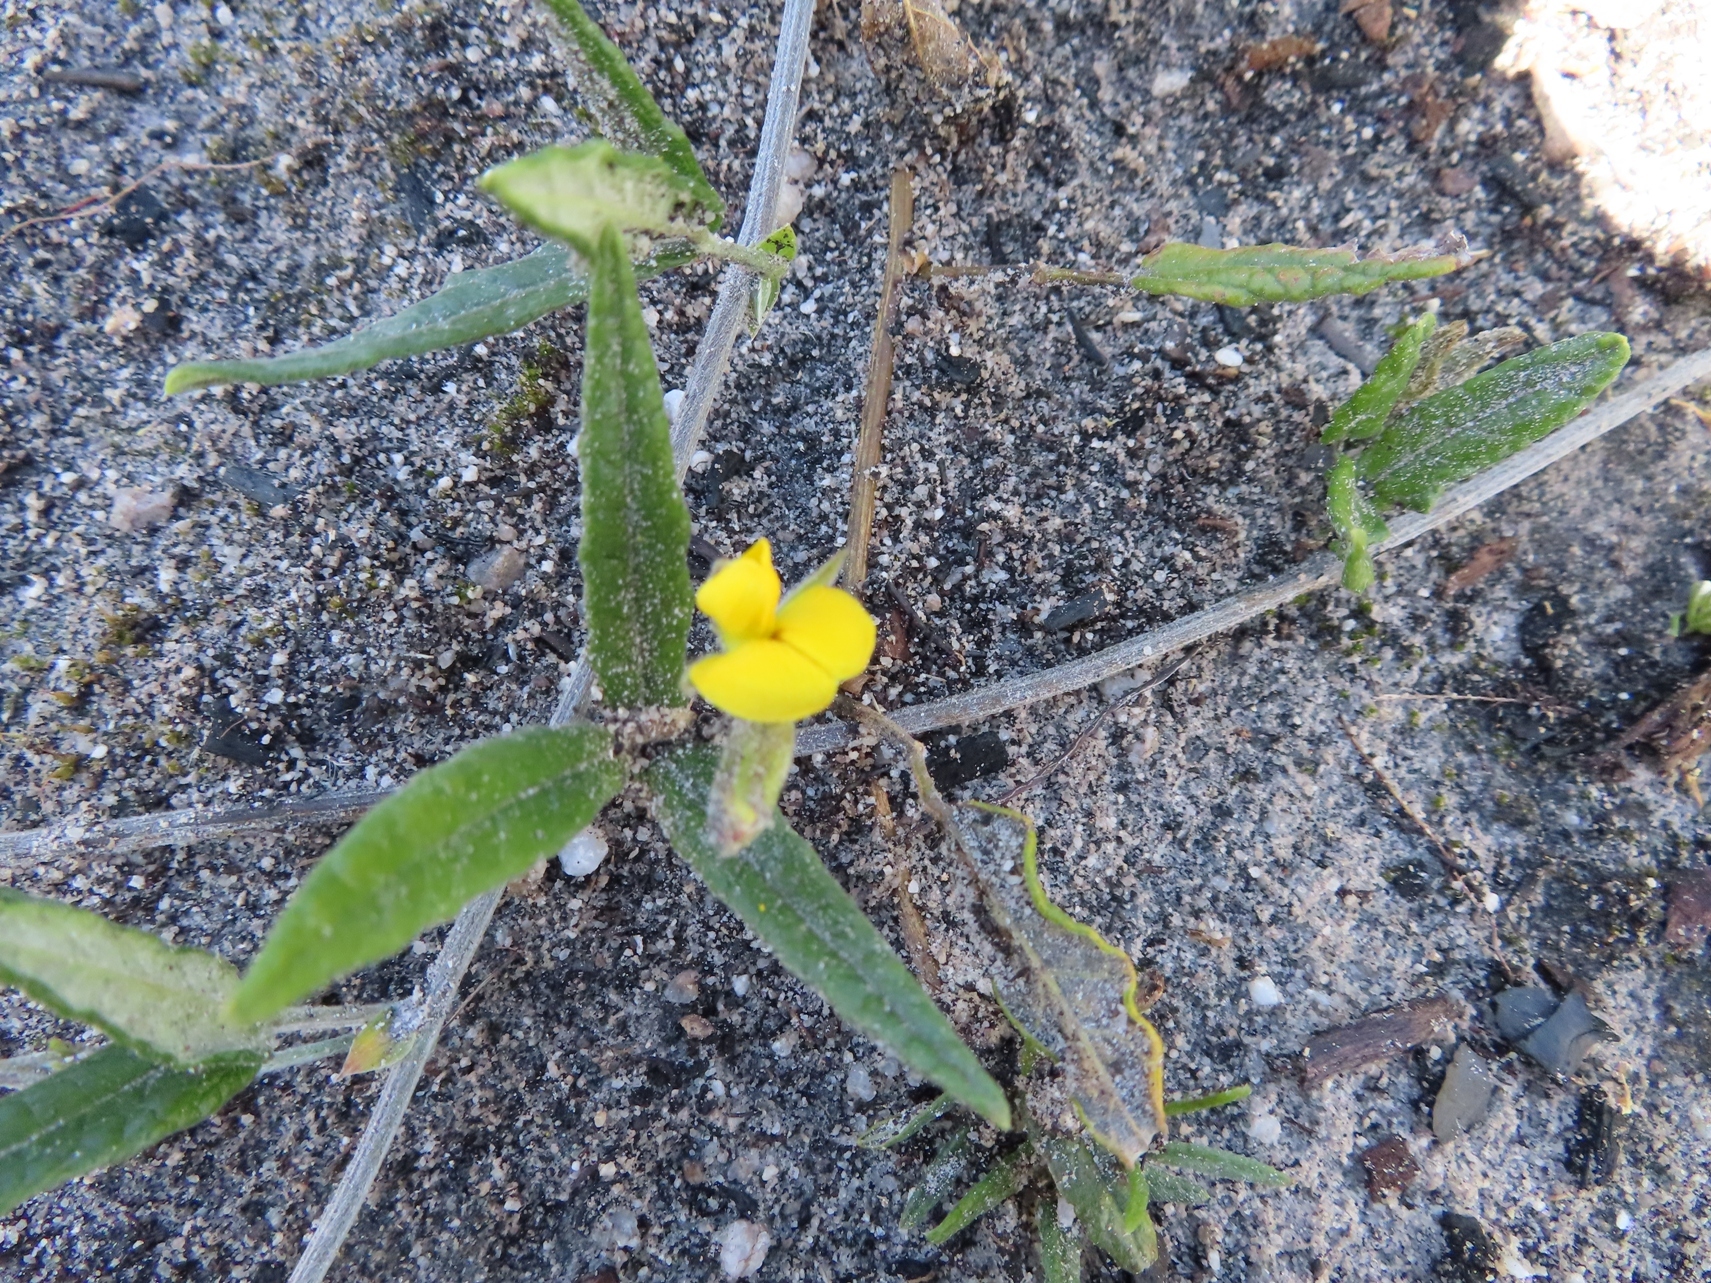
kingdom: Plantae
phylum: Tracheophyta
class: Magnoliopsida
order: Fabales
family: Fabaceae
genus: Rhynchosia
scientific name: Rhynchosia leucoscias
